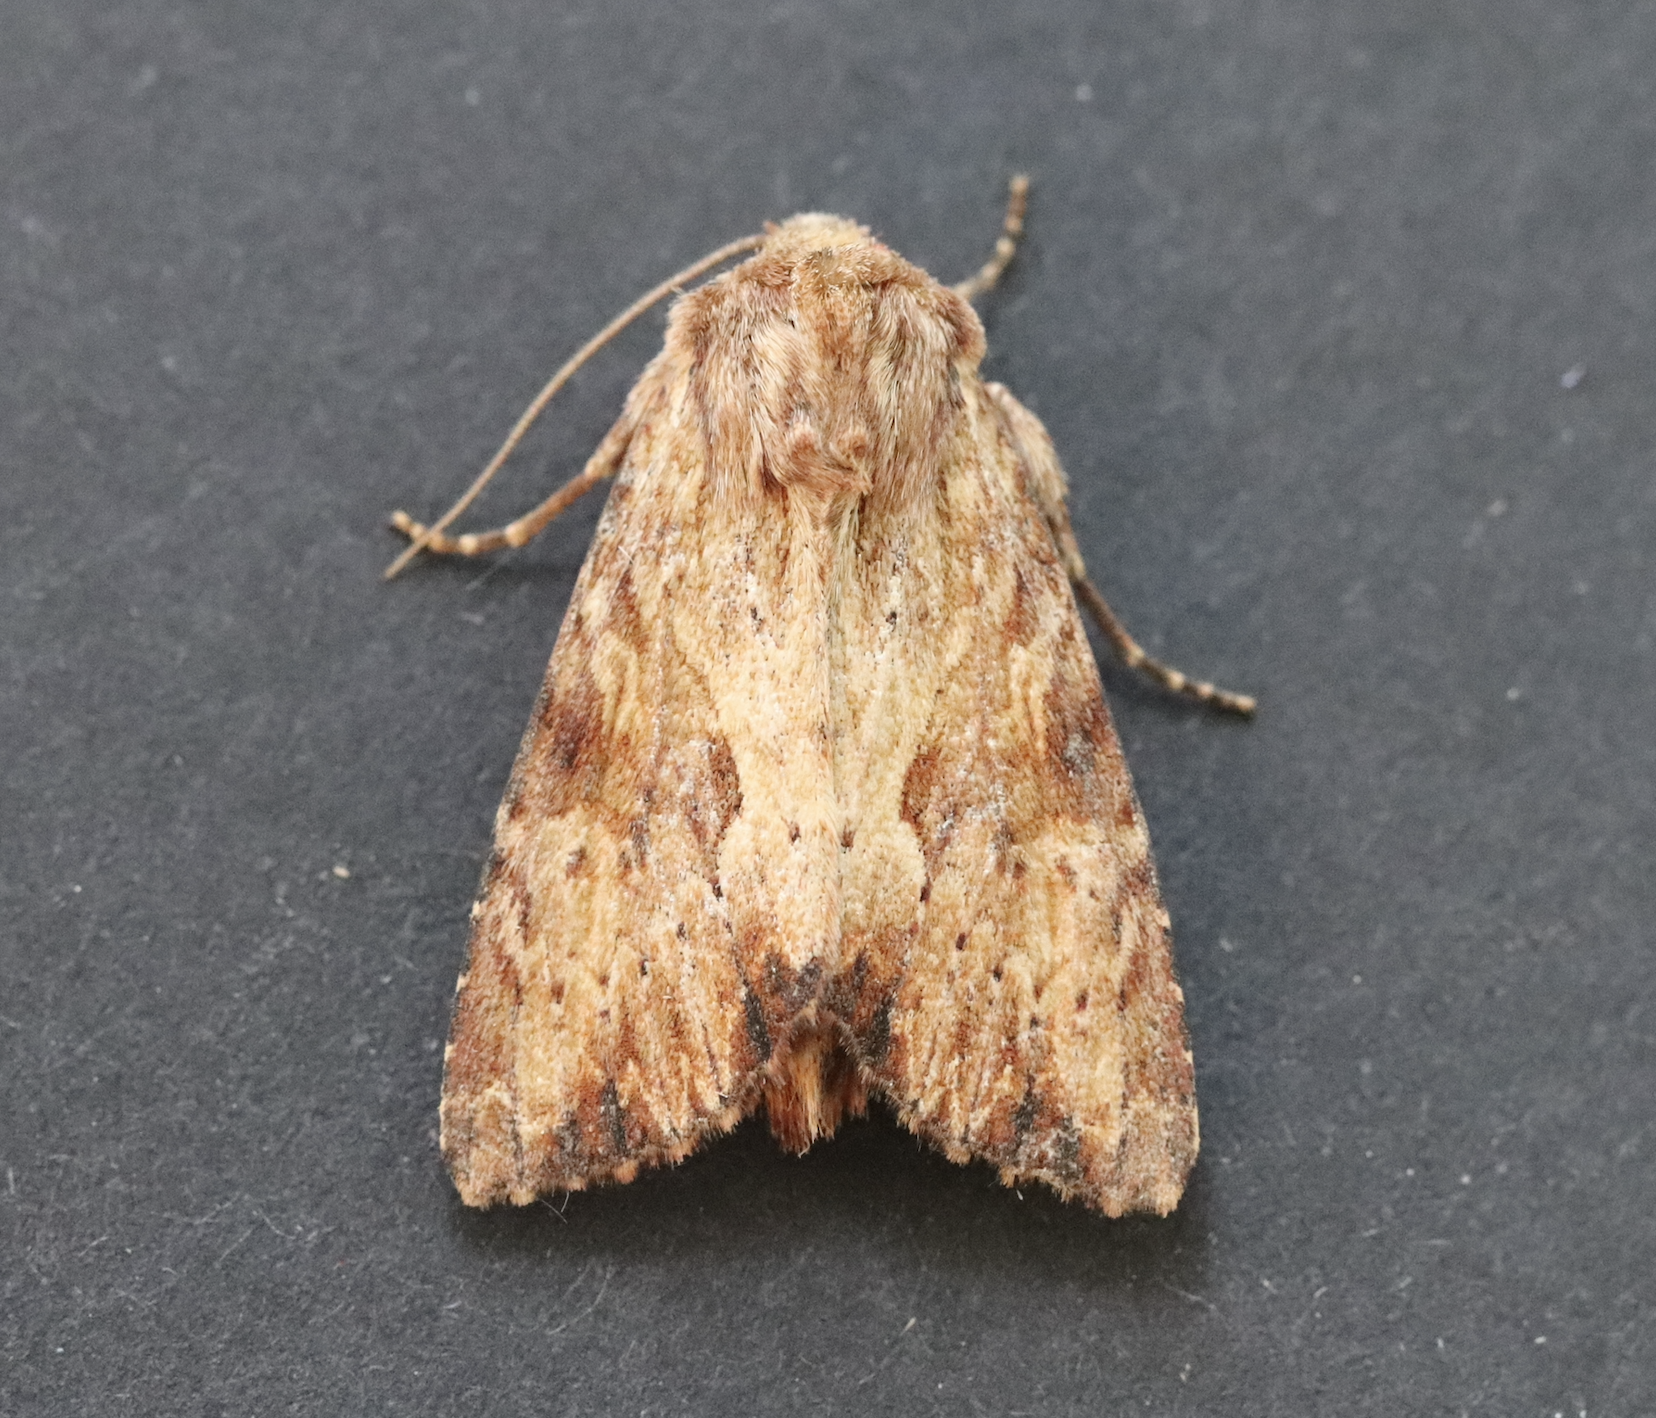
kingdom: Animalia
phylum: Arthropoda
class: Insecta
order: Lepidoptera
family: Noctuidae
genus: Apamea
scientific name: Apamea sublustris
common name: Reddish light arches
